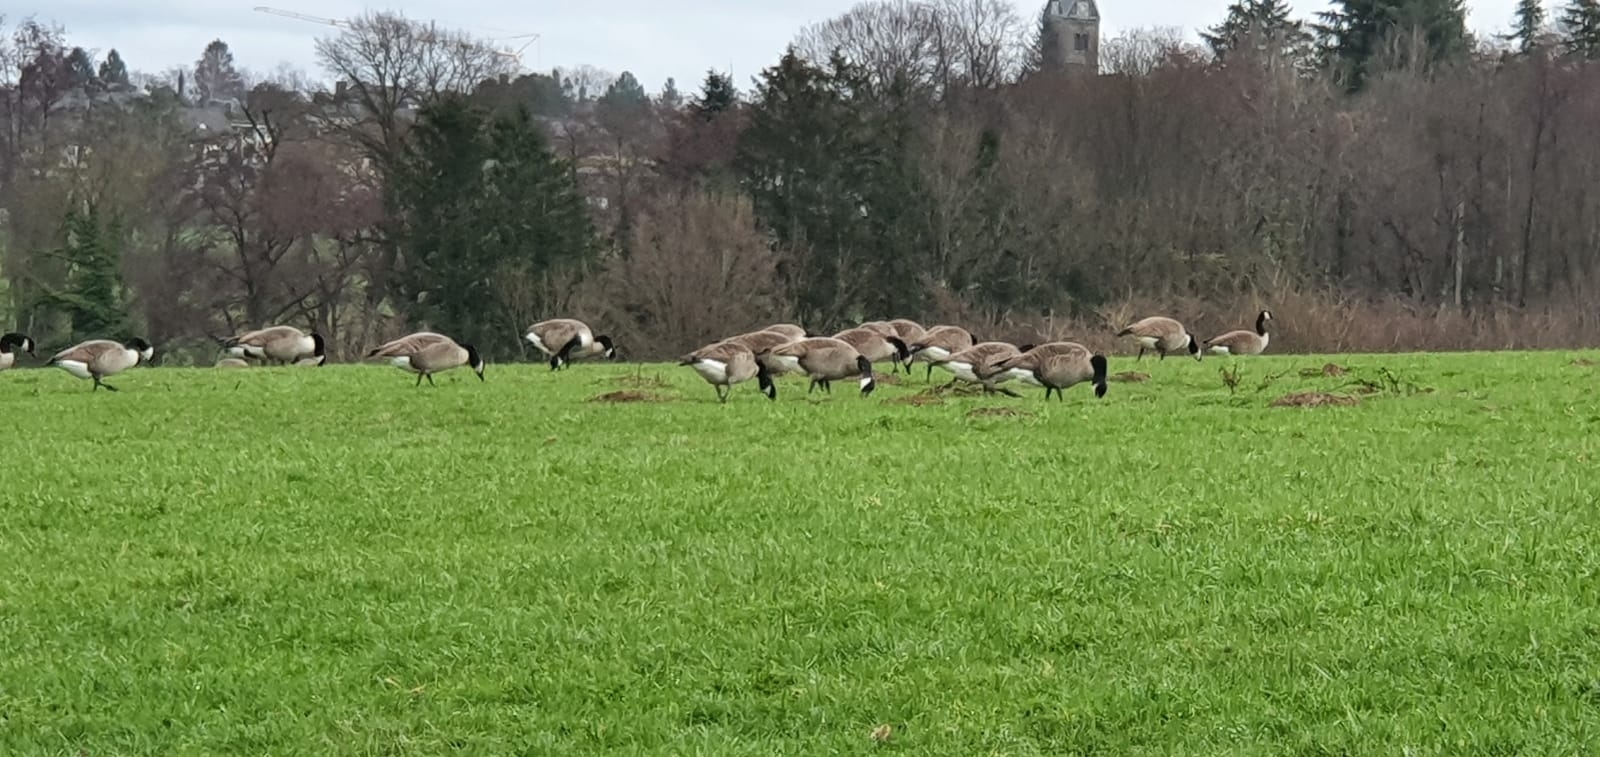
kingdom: Animalia
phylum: Chordata
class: Aves
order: Anseriformes
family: Anatidae
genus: Branta
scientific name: Branta canadensis
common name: Canada goose
